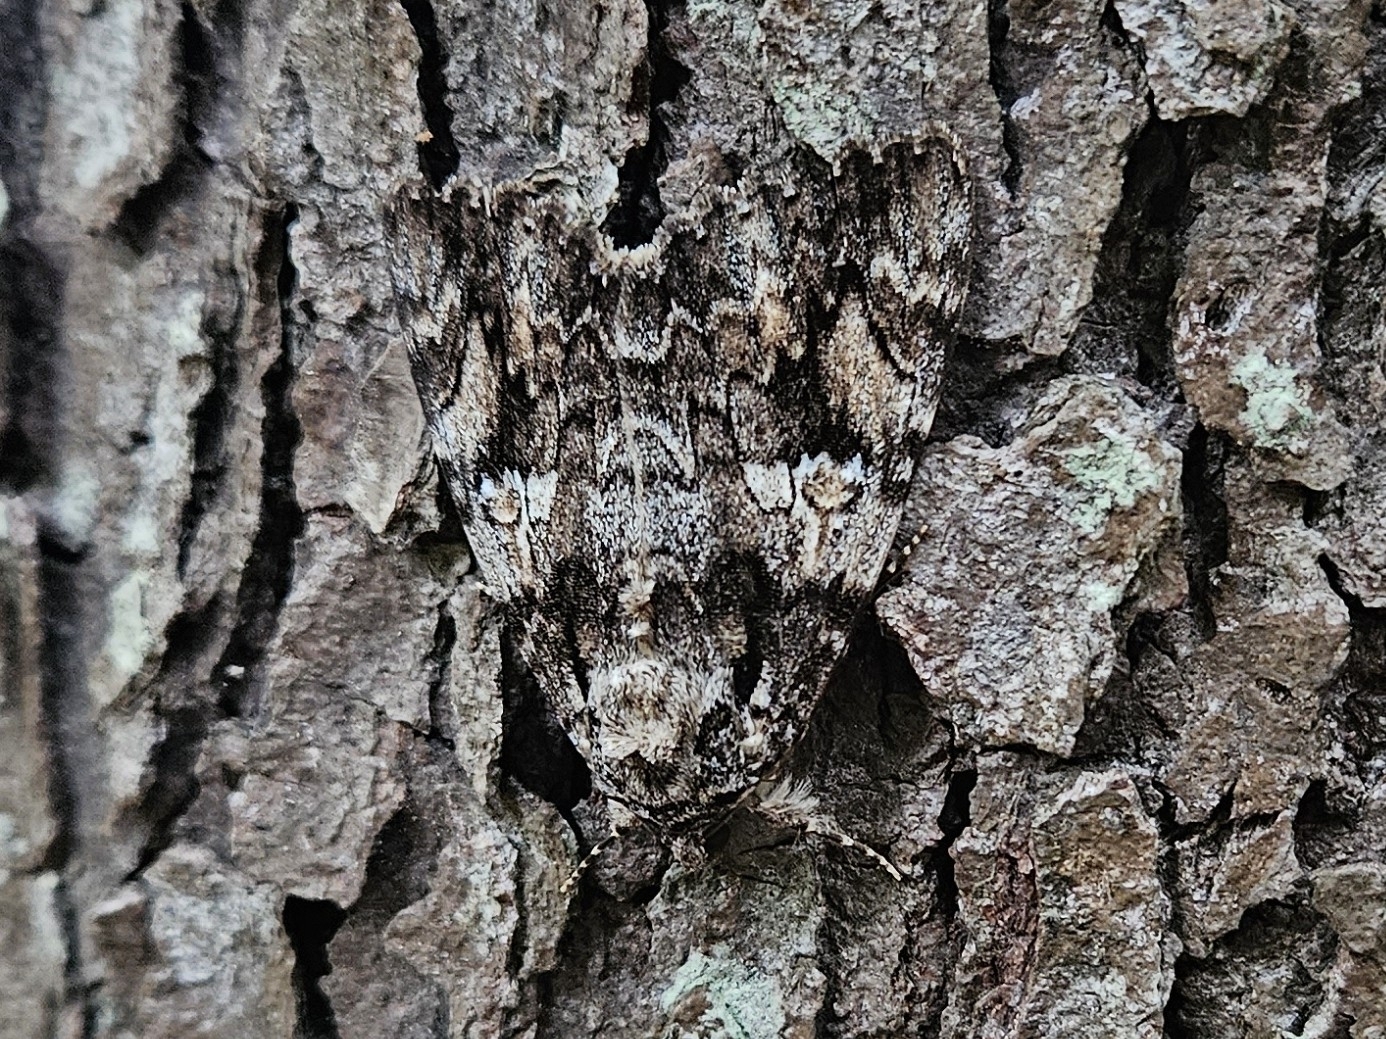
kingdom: Animalia
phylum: Arthropoda
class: Insecta
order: Lepidoptera
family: Erebidae
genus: Catocala
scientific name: Catocala ilia
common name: Ilia underwing
